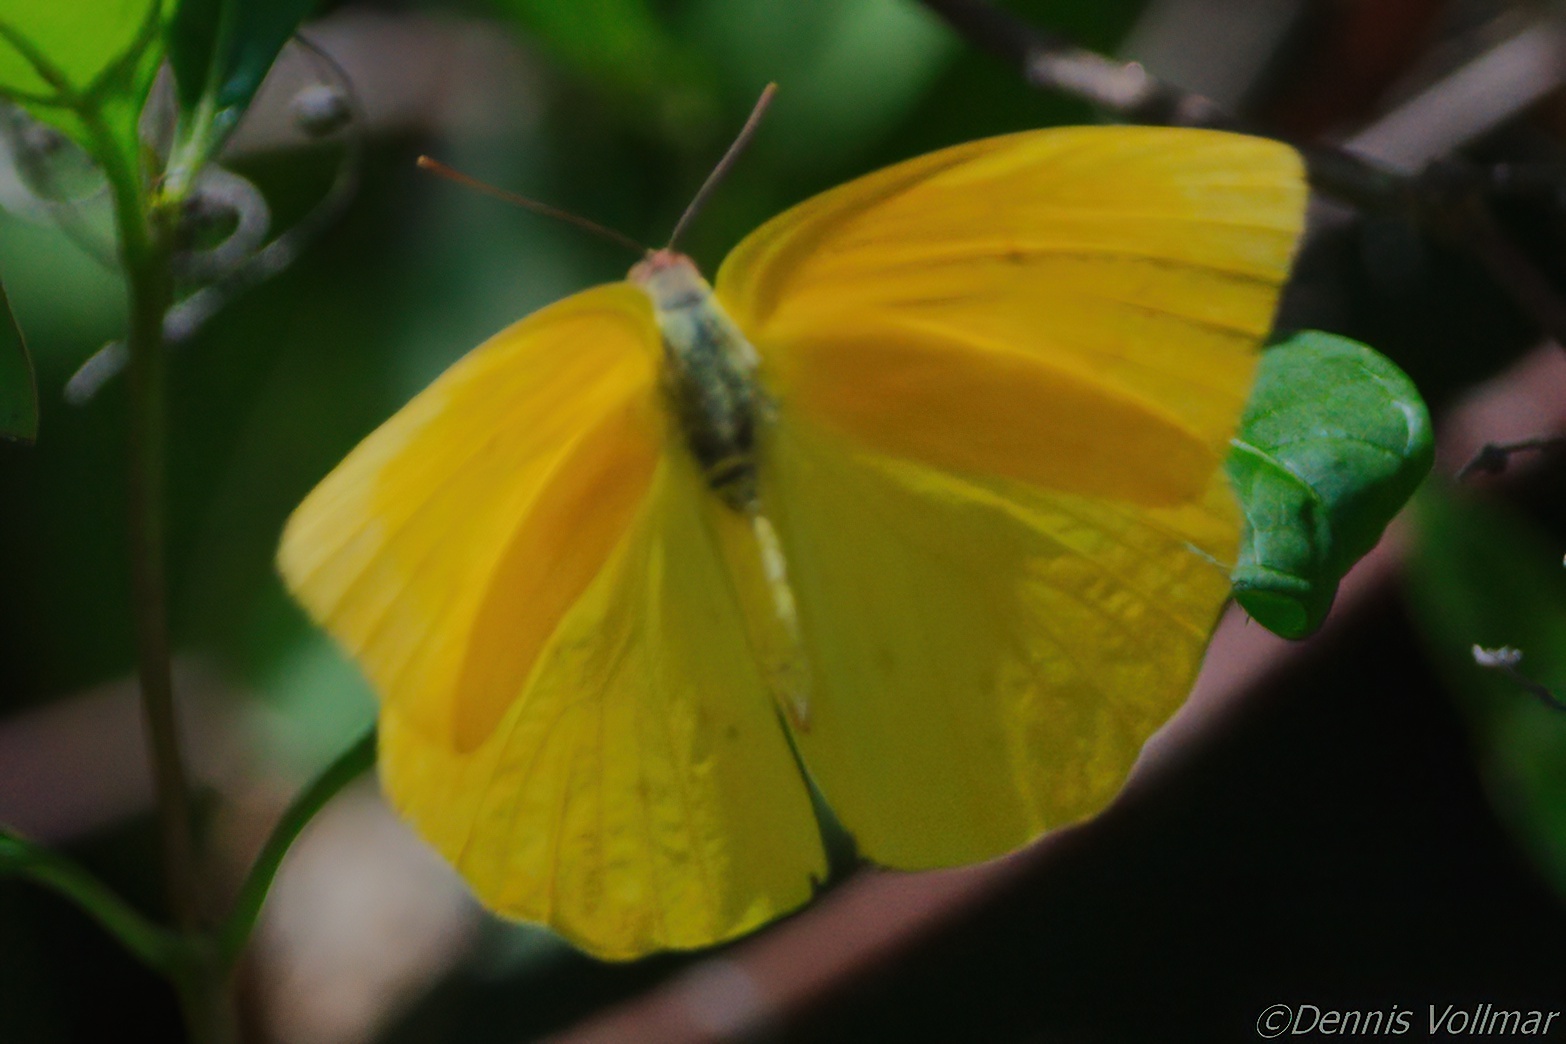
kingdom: Animalia
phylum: Arthropoda
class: Insecta
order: Lepidoptera
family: Pieridae
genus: Phoebis
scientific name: Phoebis agarithe
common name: Large orange sulphur
